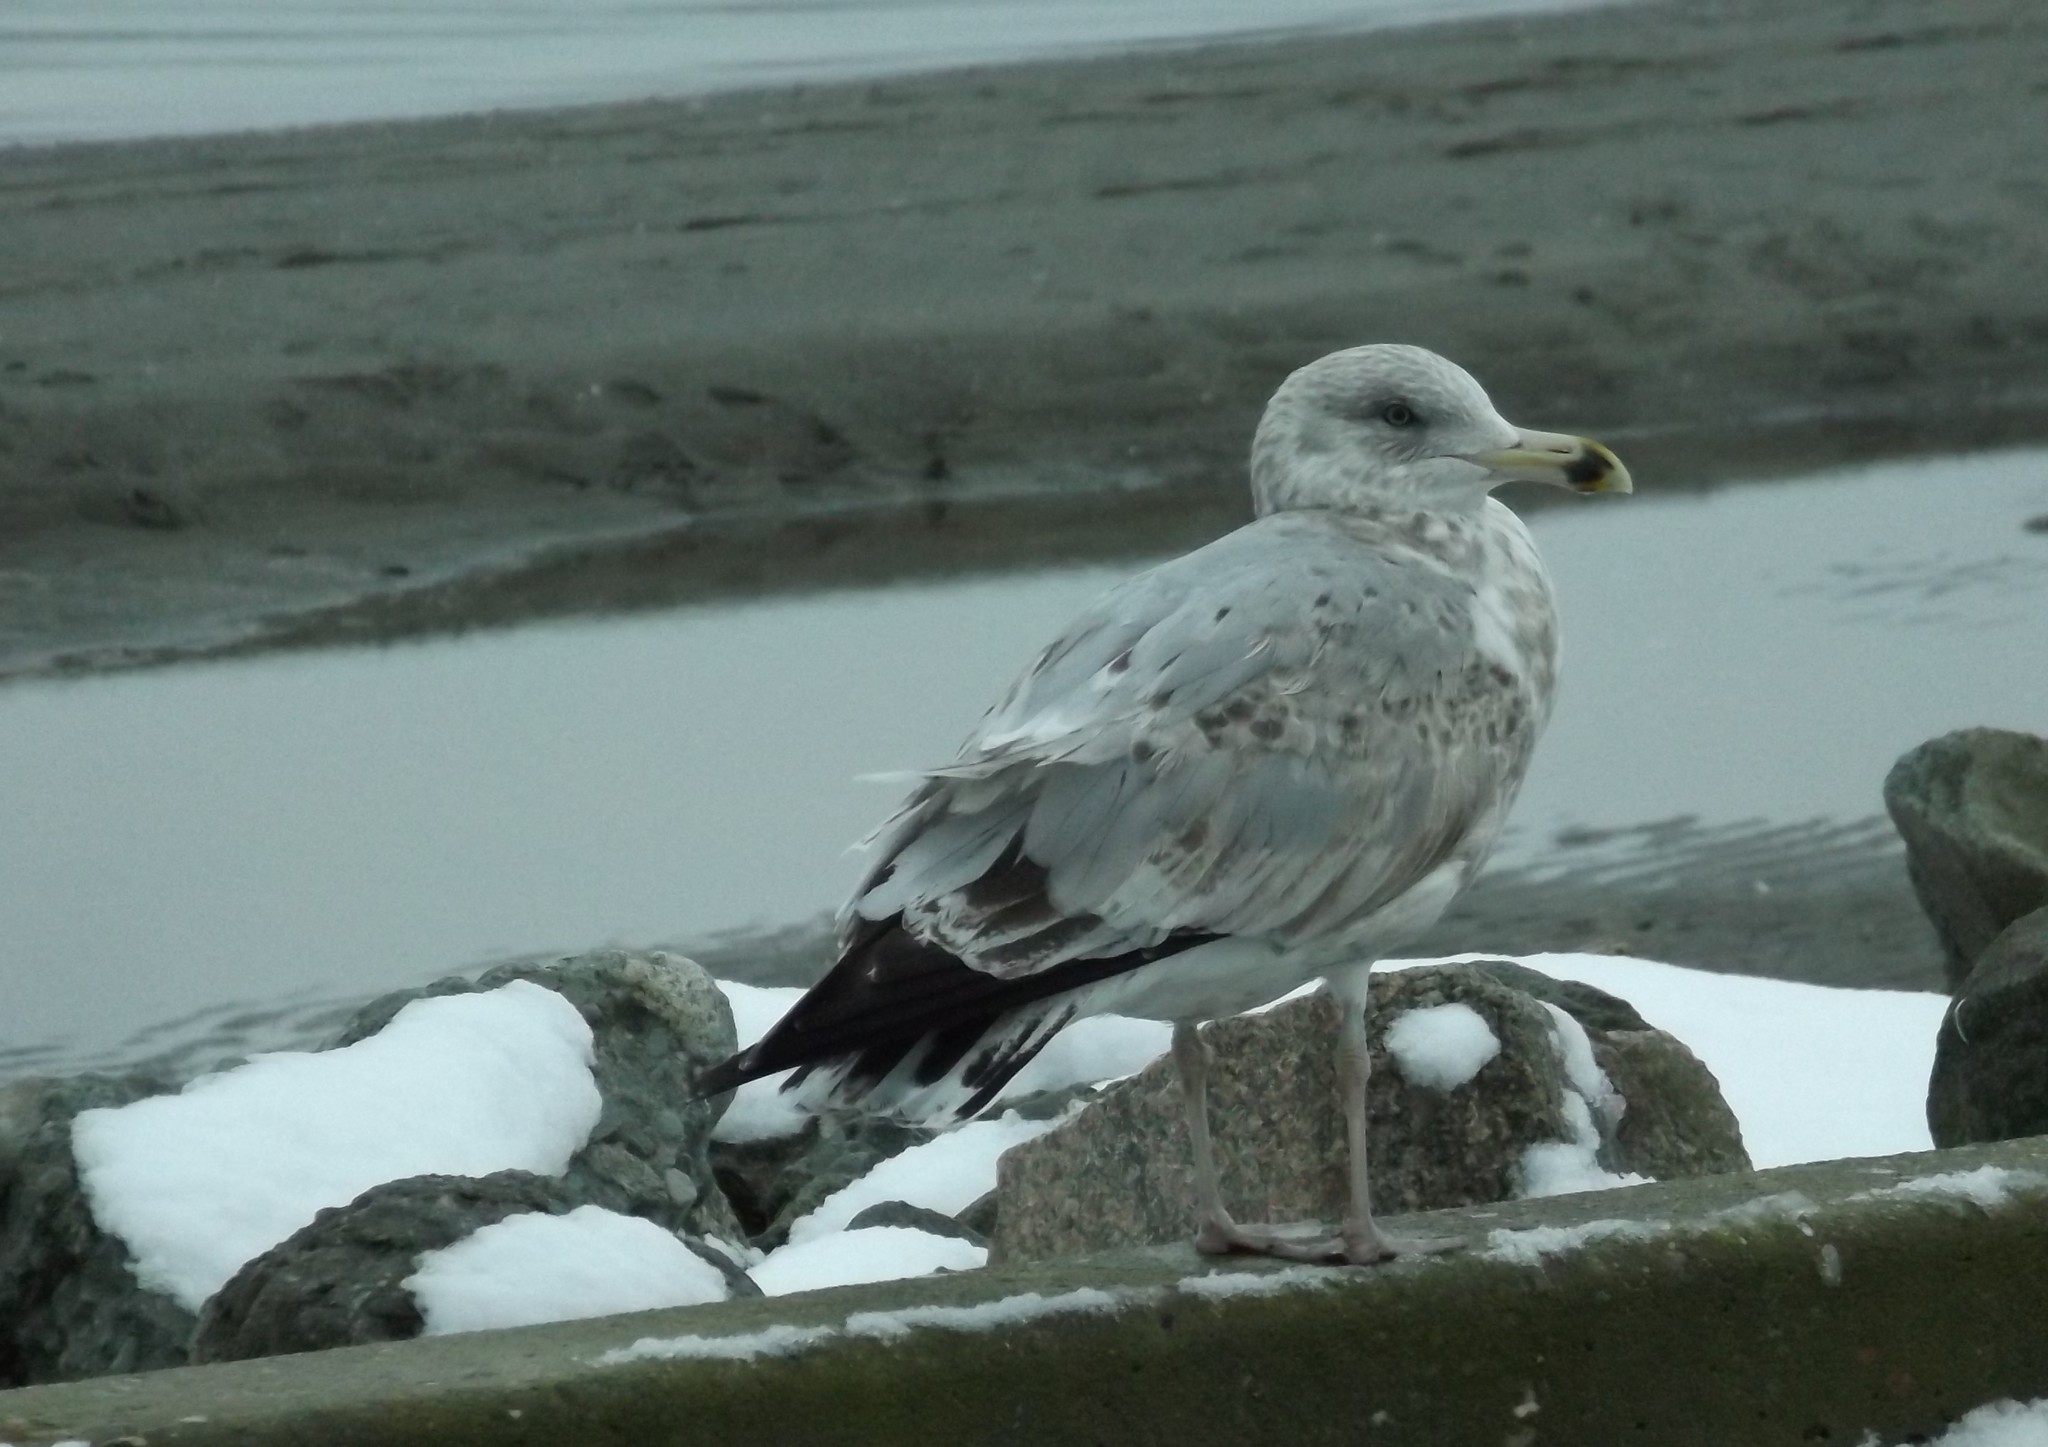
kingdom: Animalia
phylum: Chordata
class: Aves
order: Charadriiformes
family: Laridae
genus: Larus
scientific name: Larus argentatus
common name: Herring gull
